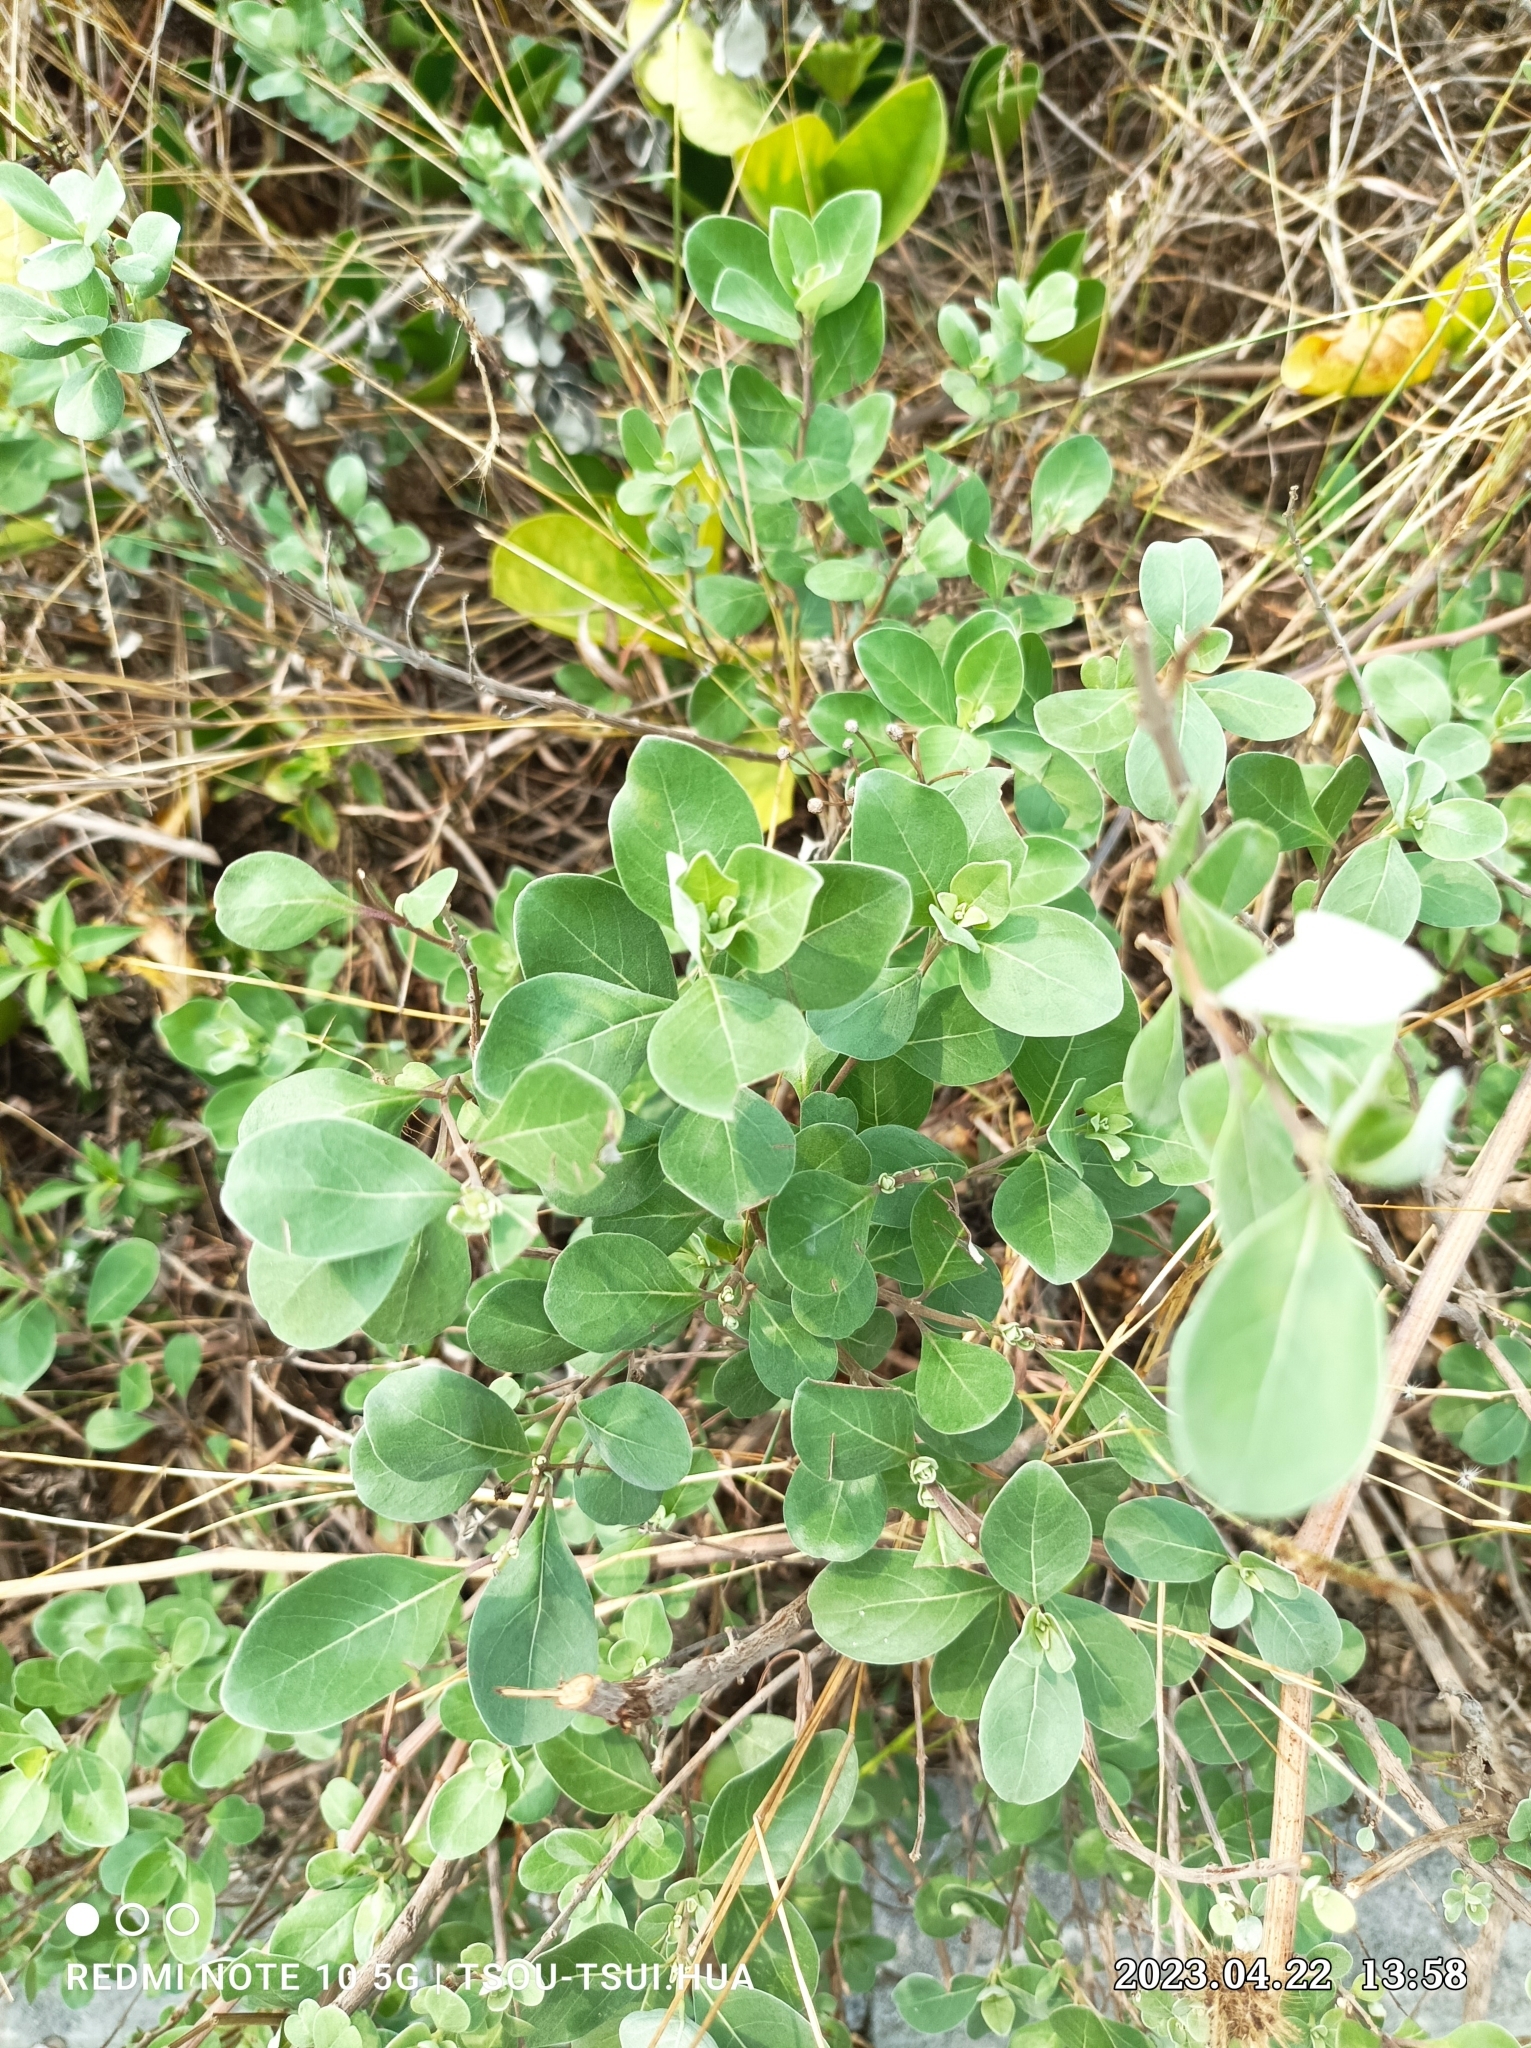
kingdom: Plantae
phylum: Tracheophyta
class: Magnoliopsida
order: Lamiales
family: Lamiaceae
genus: Vitex
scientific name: Vitex rotundifolia
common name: Beach vitex
